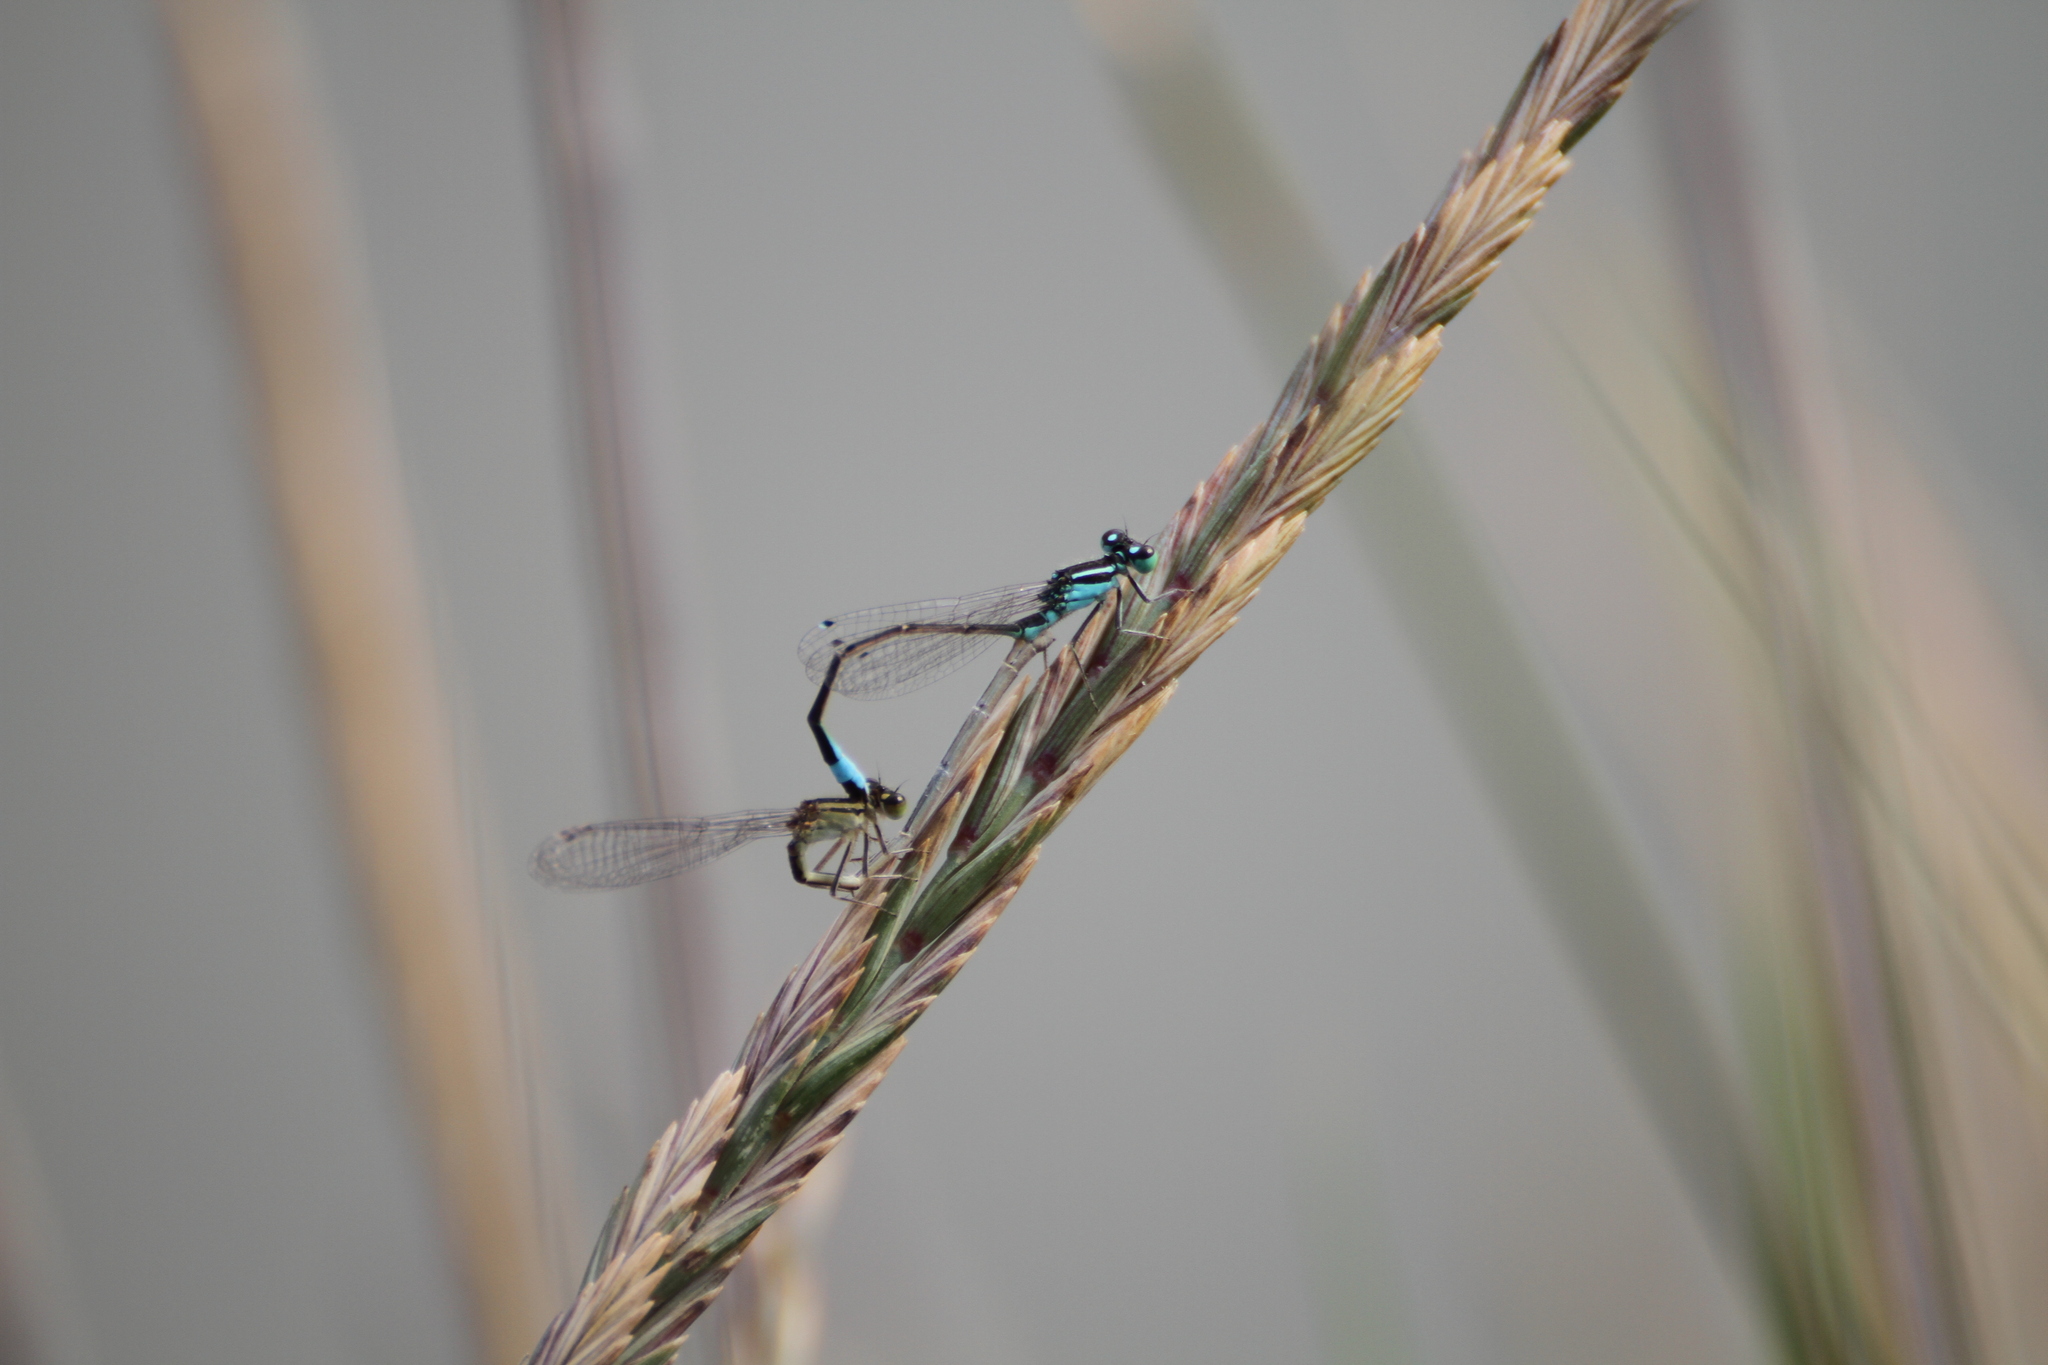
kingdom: Animalia
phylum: Arthropoda
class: Insecta
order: Odonata
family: Coenagrionidae
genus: Ischnura
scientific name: Ischnura elegans
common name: Blue-tailed damselfly
